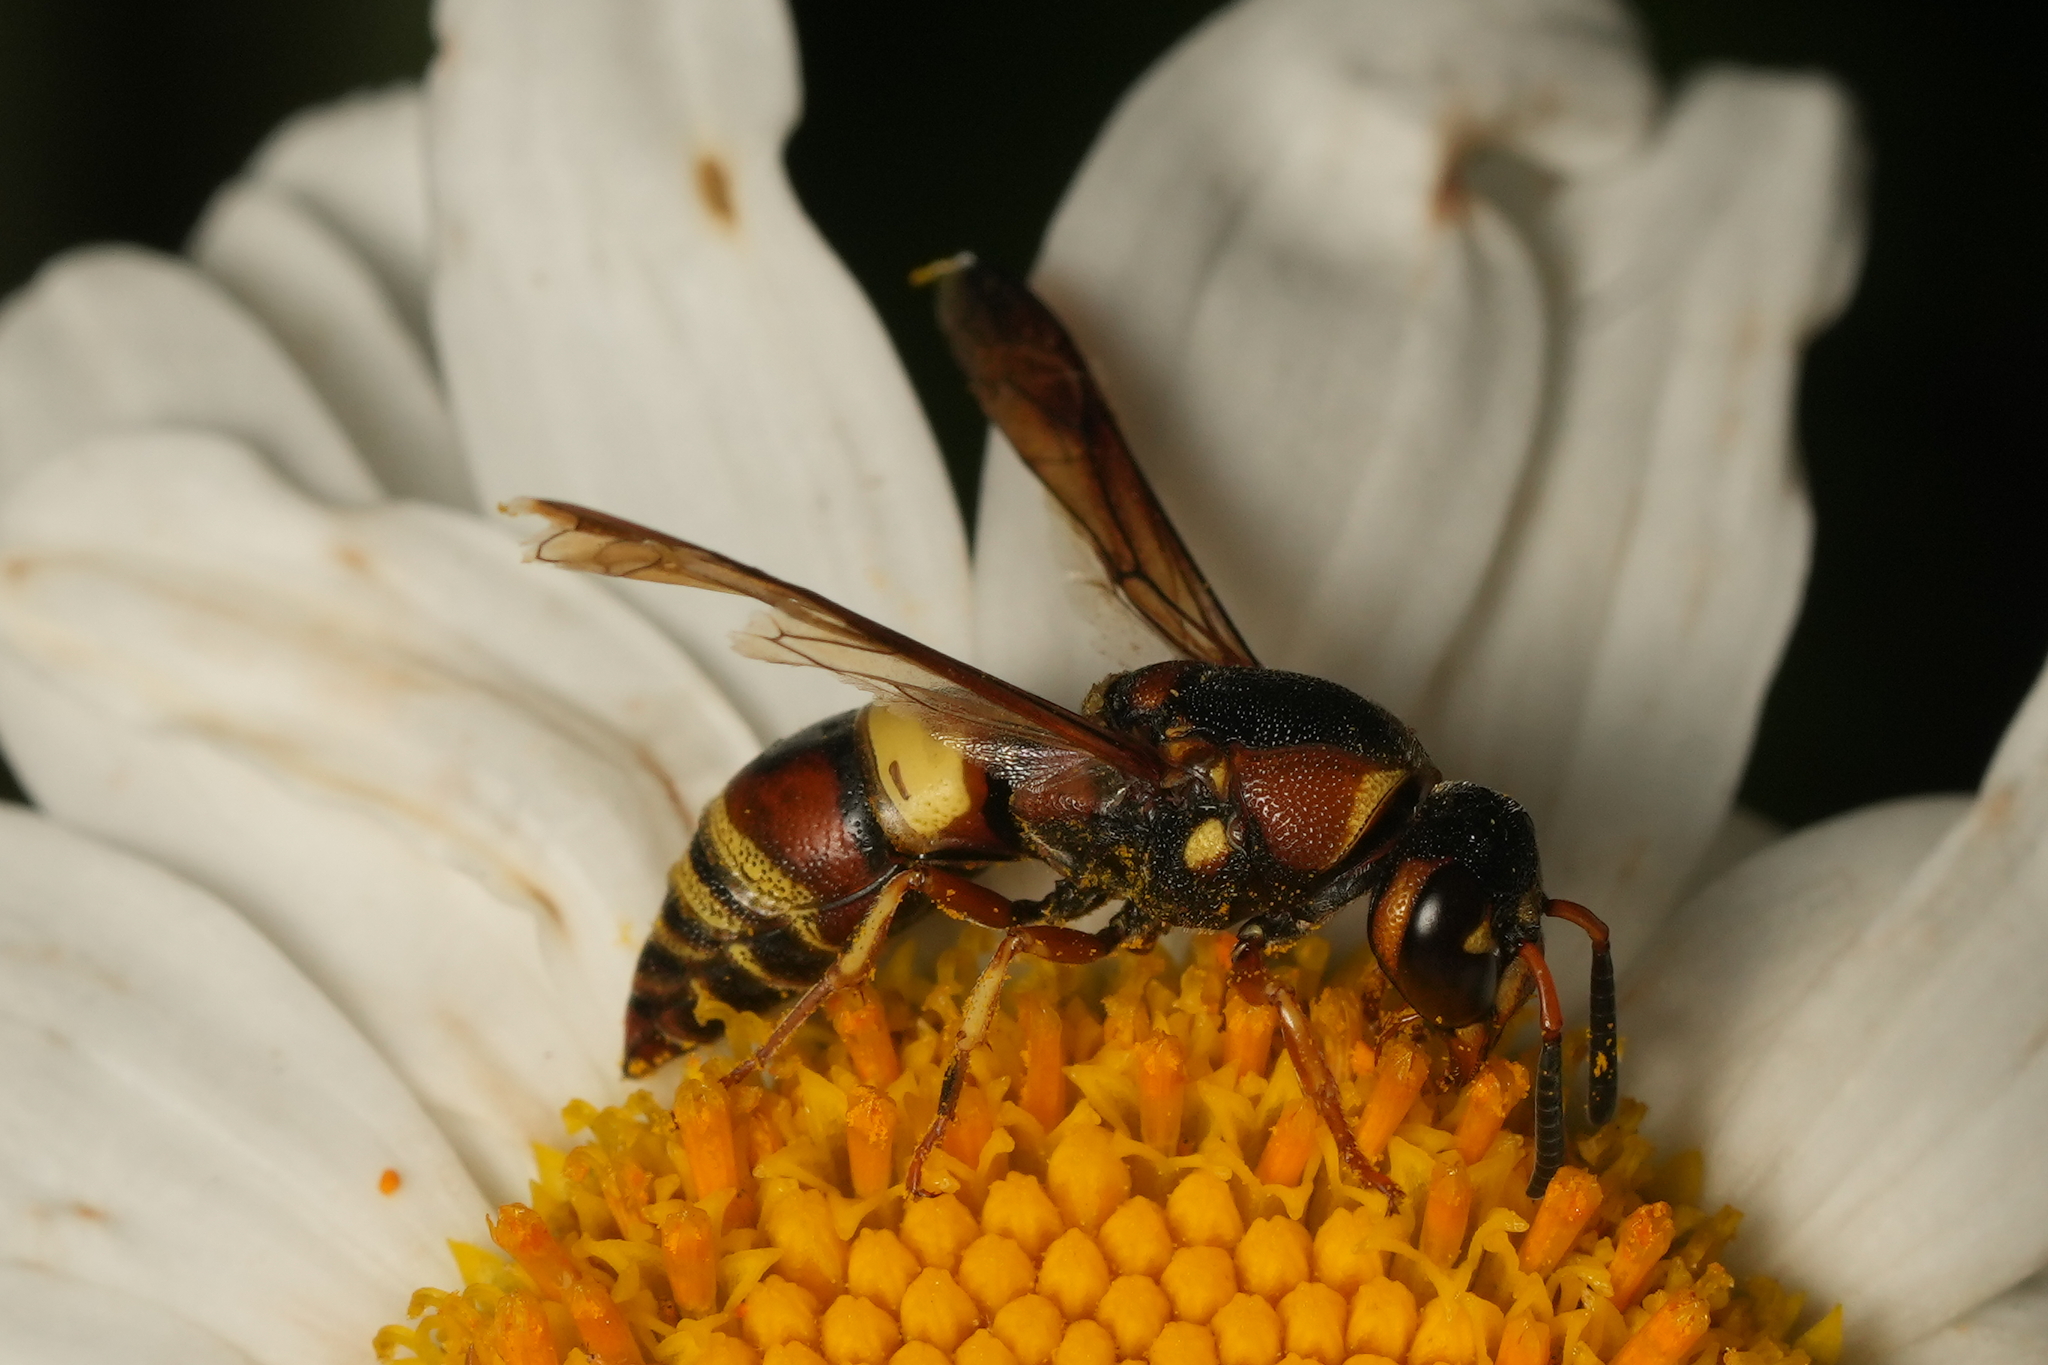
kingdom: Animalia
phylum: Arthropoda
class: Insecta
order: Hymenoptera
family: Eumenidae
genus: Euodynerus
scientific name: Euodynerus hidalgo
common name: Wasp
